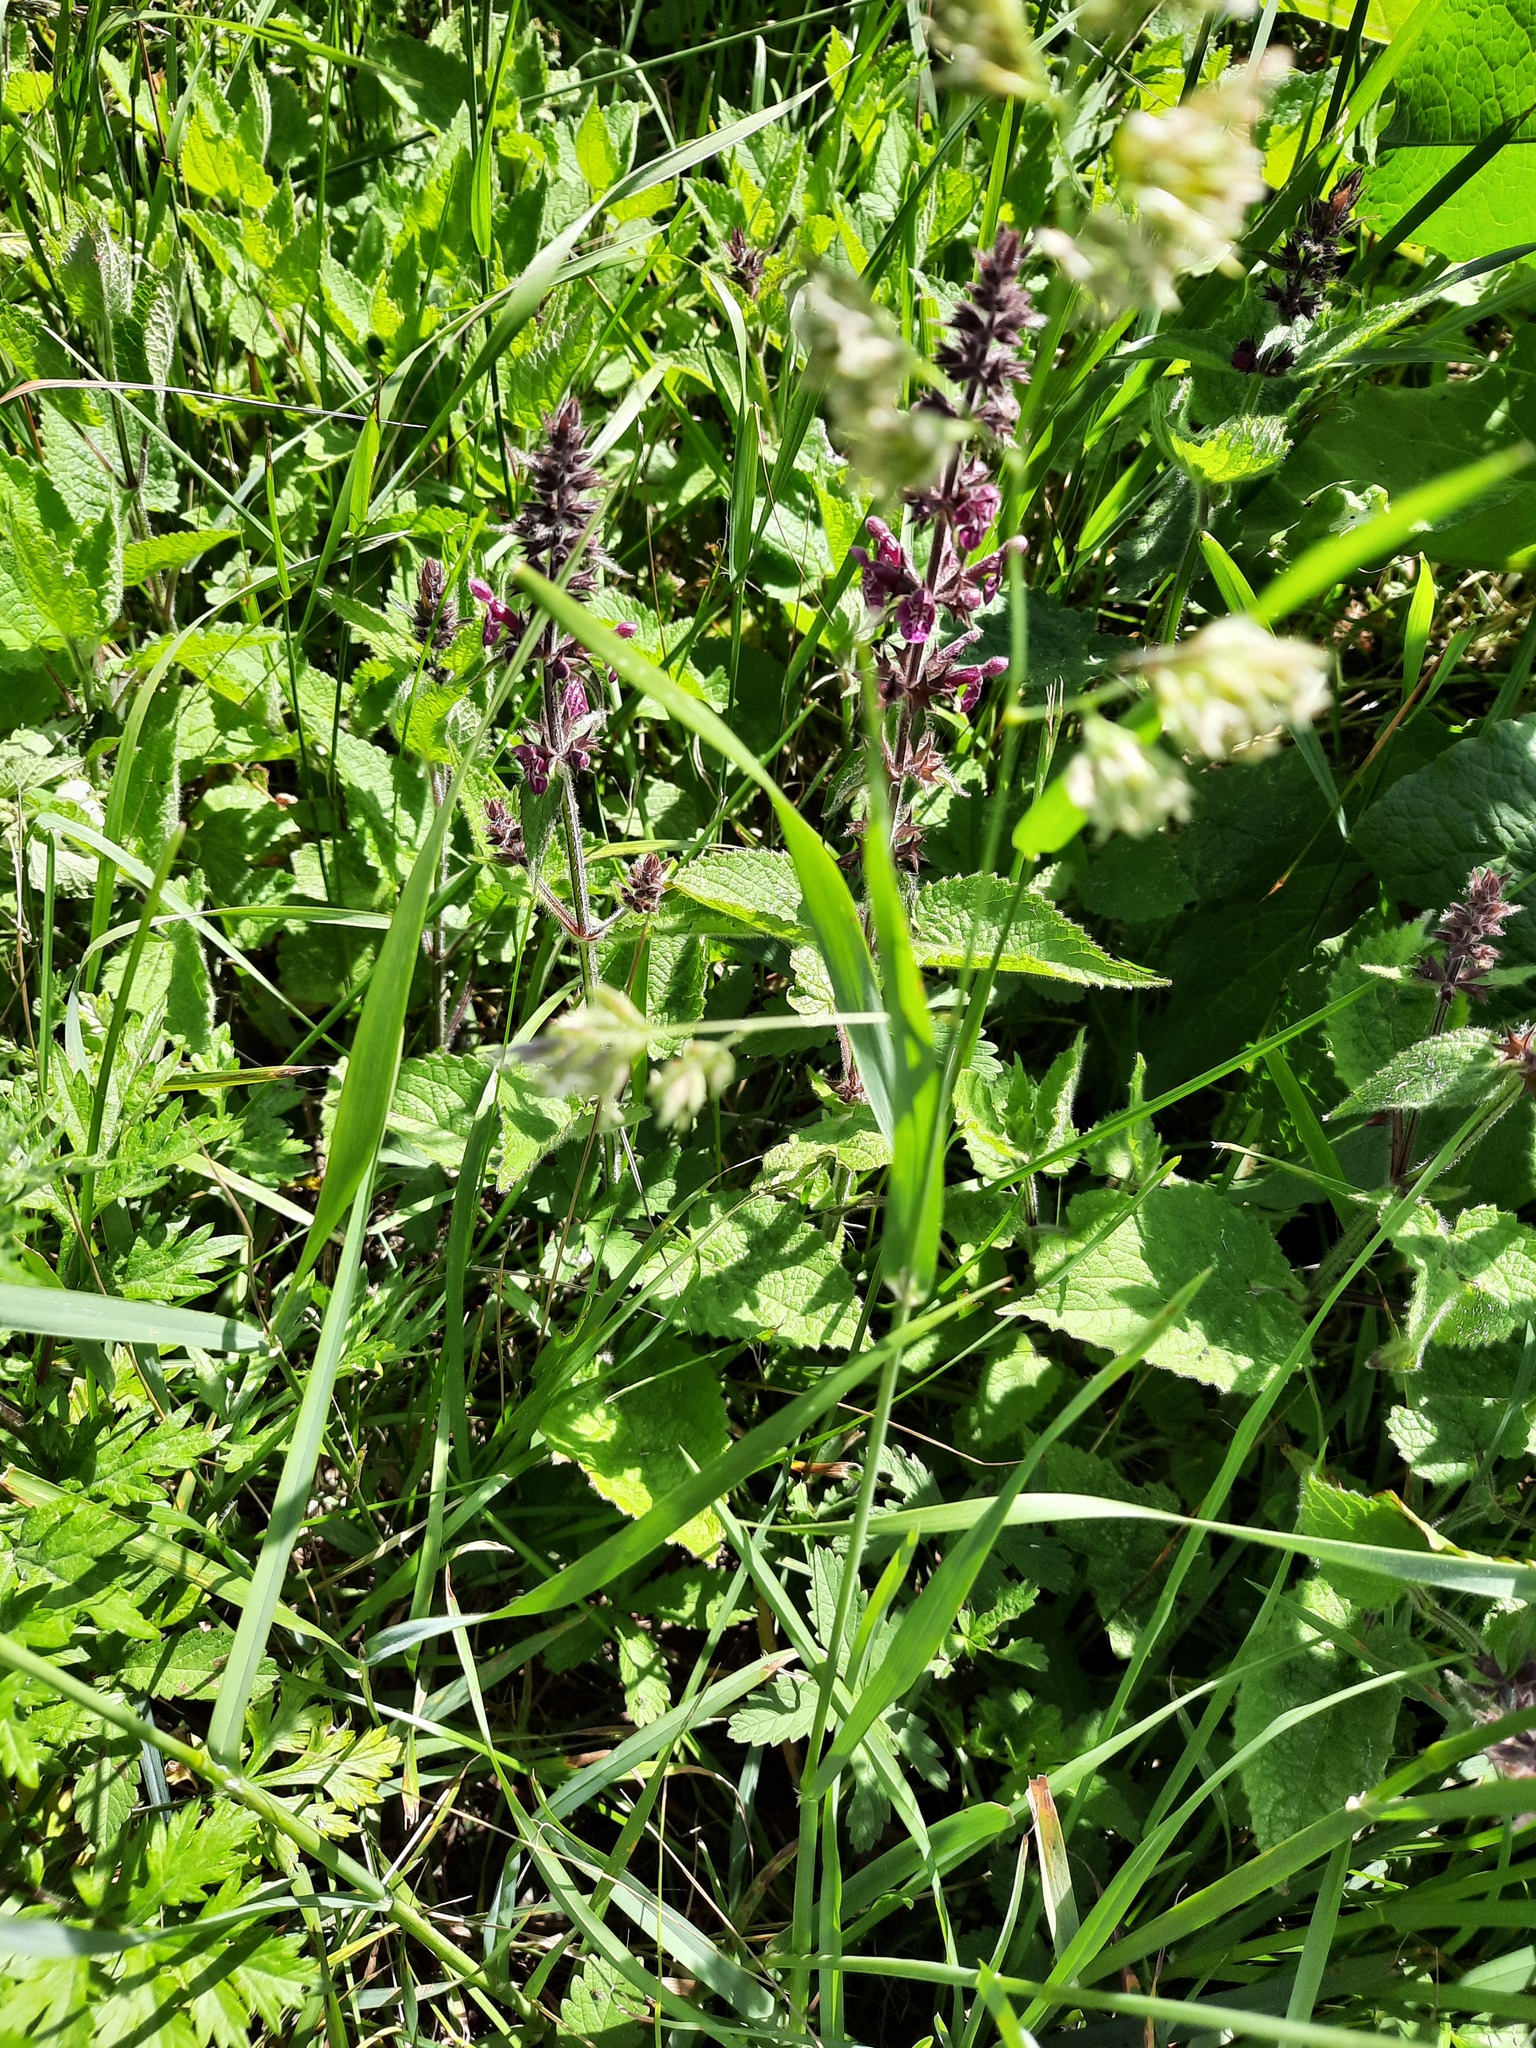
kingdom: Plantae
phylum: Tracheophyta
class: Magnoliopsida
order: Lamiales
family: Lamiaceae
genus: Stachys
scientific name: Stachys sylvatica
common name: Hedge woundwort
